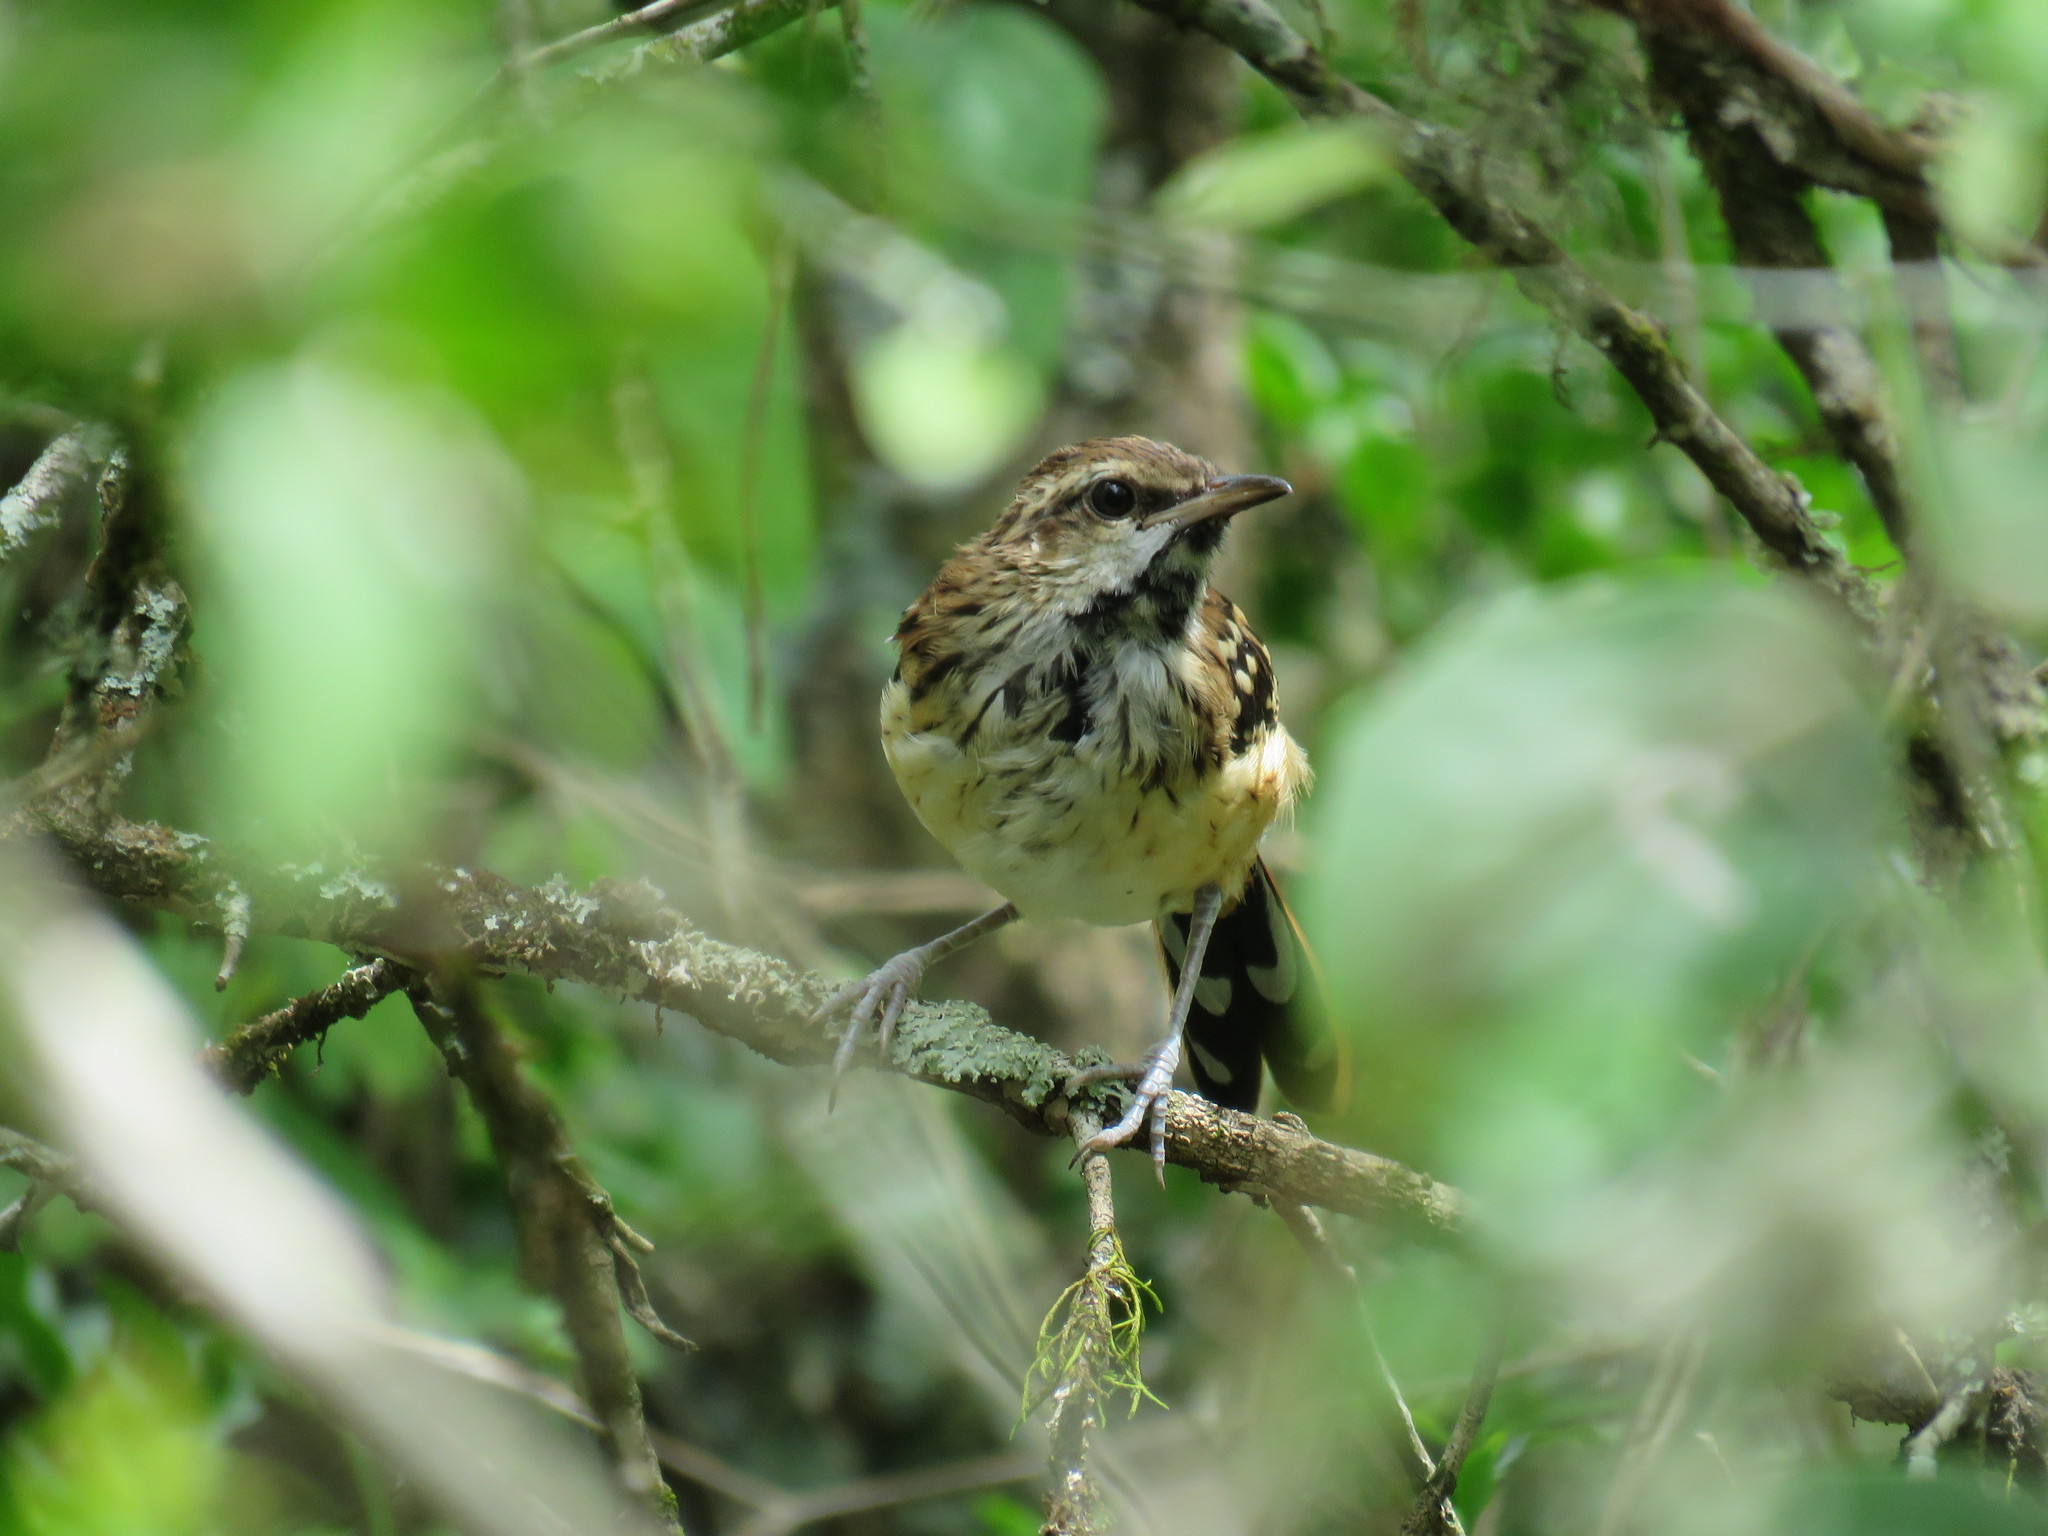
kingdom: Animalia
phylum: Chordata
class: Aves
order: Passeriformes
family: Thamnophilidae
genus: Myrmorchilus
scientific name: Myrmorchilus strigilatus
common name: Stripe-backed antbird
